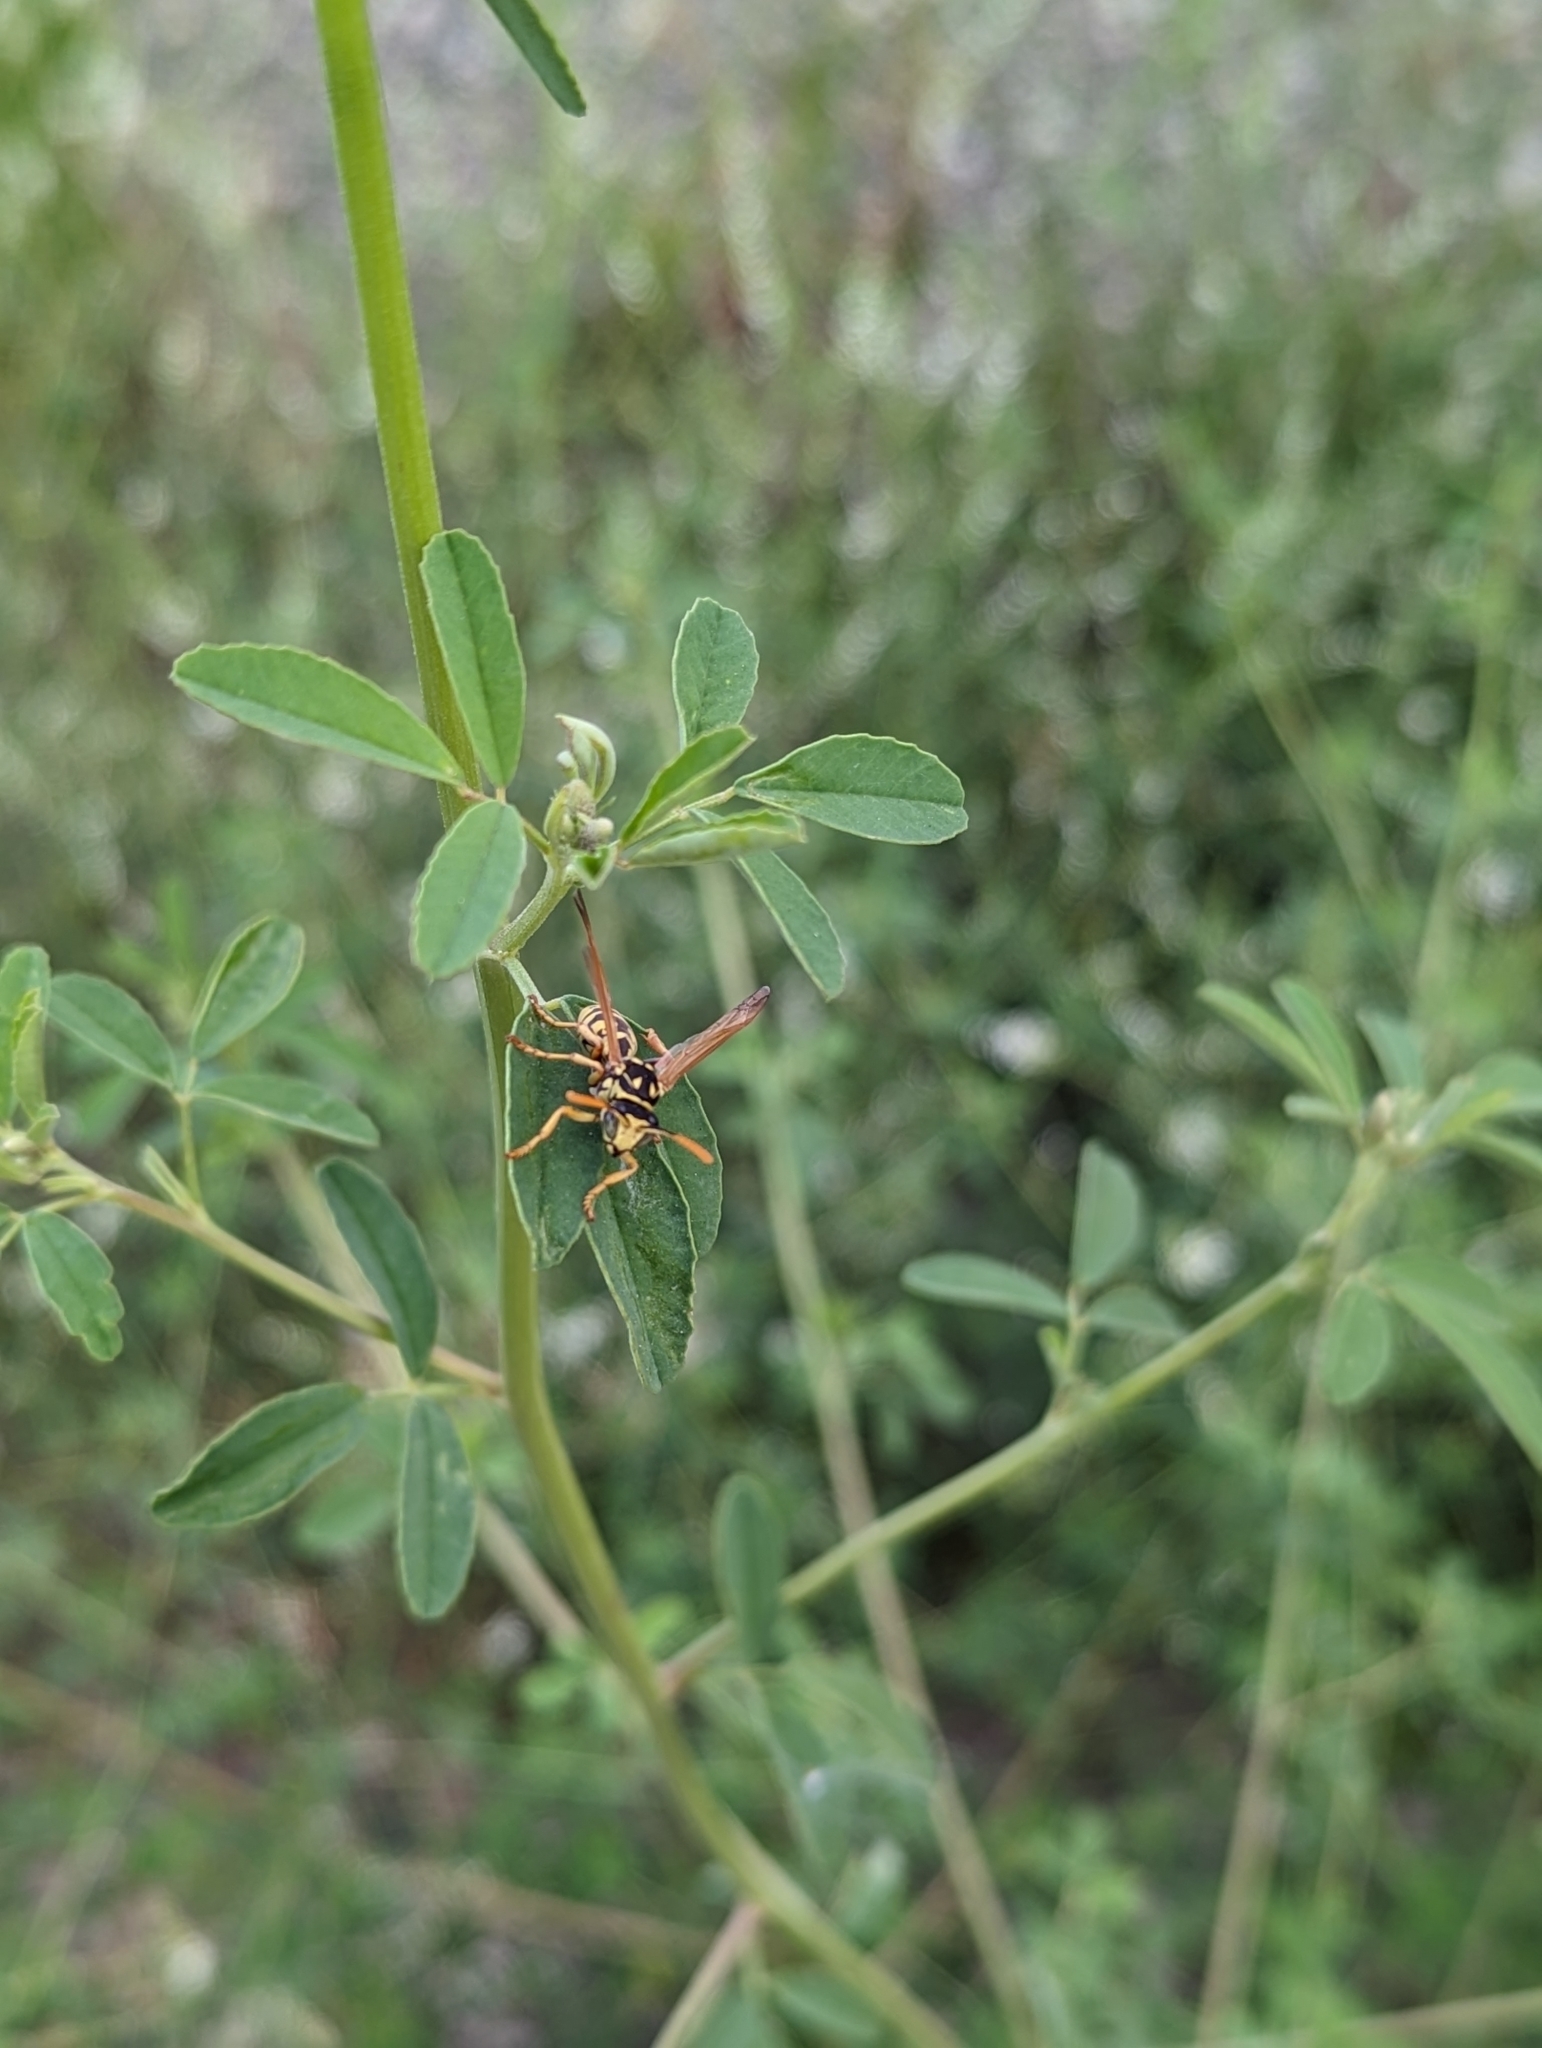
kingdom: Animalia
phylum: Arthropoda
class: Insecta
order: Hymenoptera
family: Eumenidae
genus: Polistes
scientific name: Polistes dominula
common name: Paper wasp
